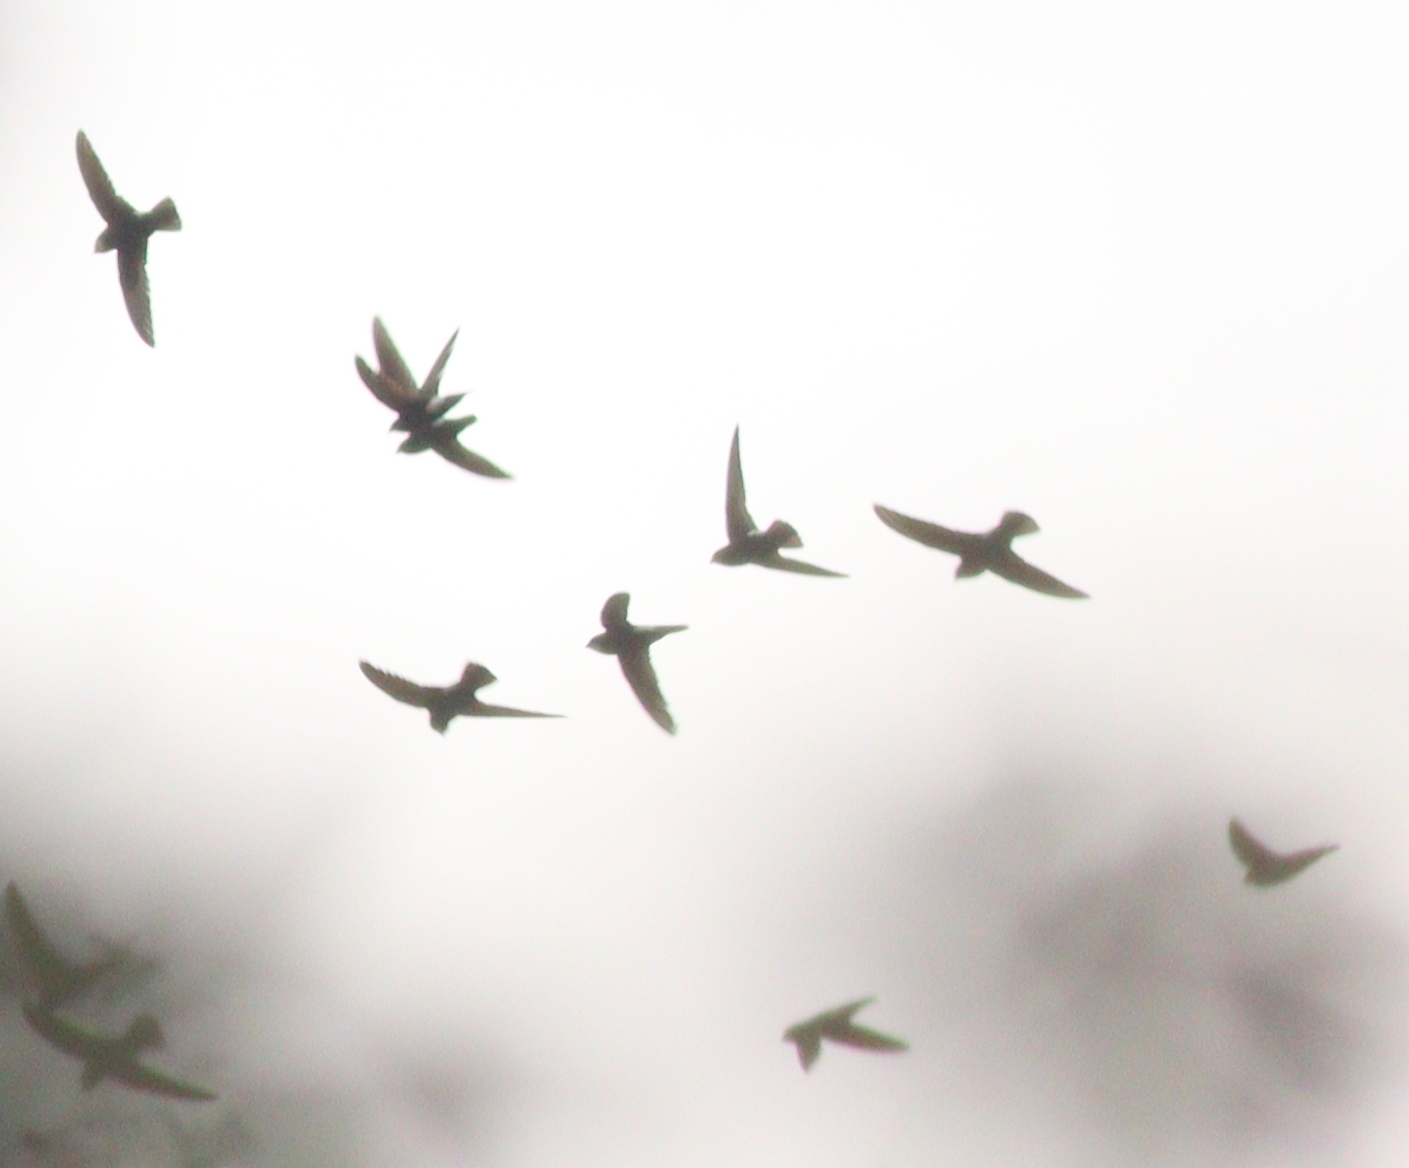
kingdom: Animalia
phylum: Chordata
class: Aves
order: Apodiformes
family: Apodidae
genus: Apus
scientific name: Apus affinis
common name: Little swift
